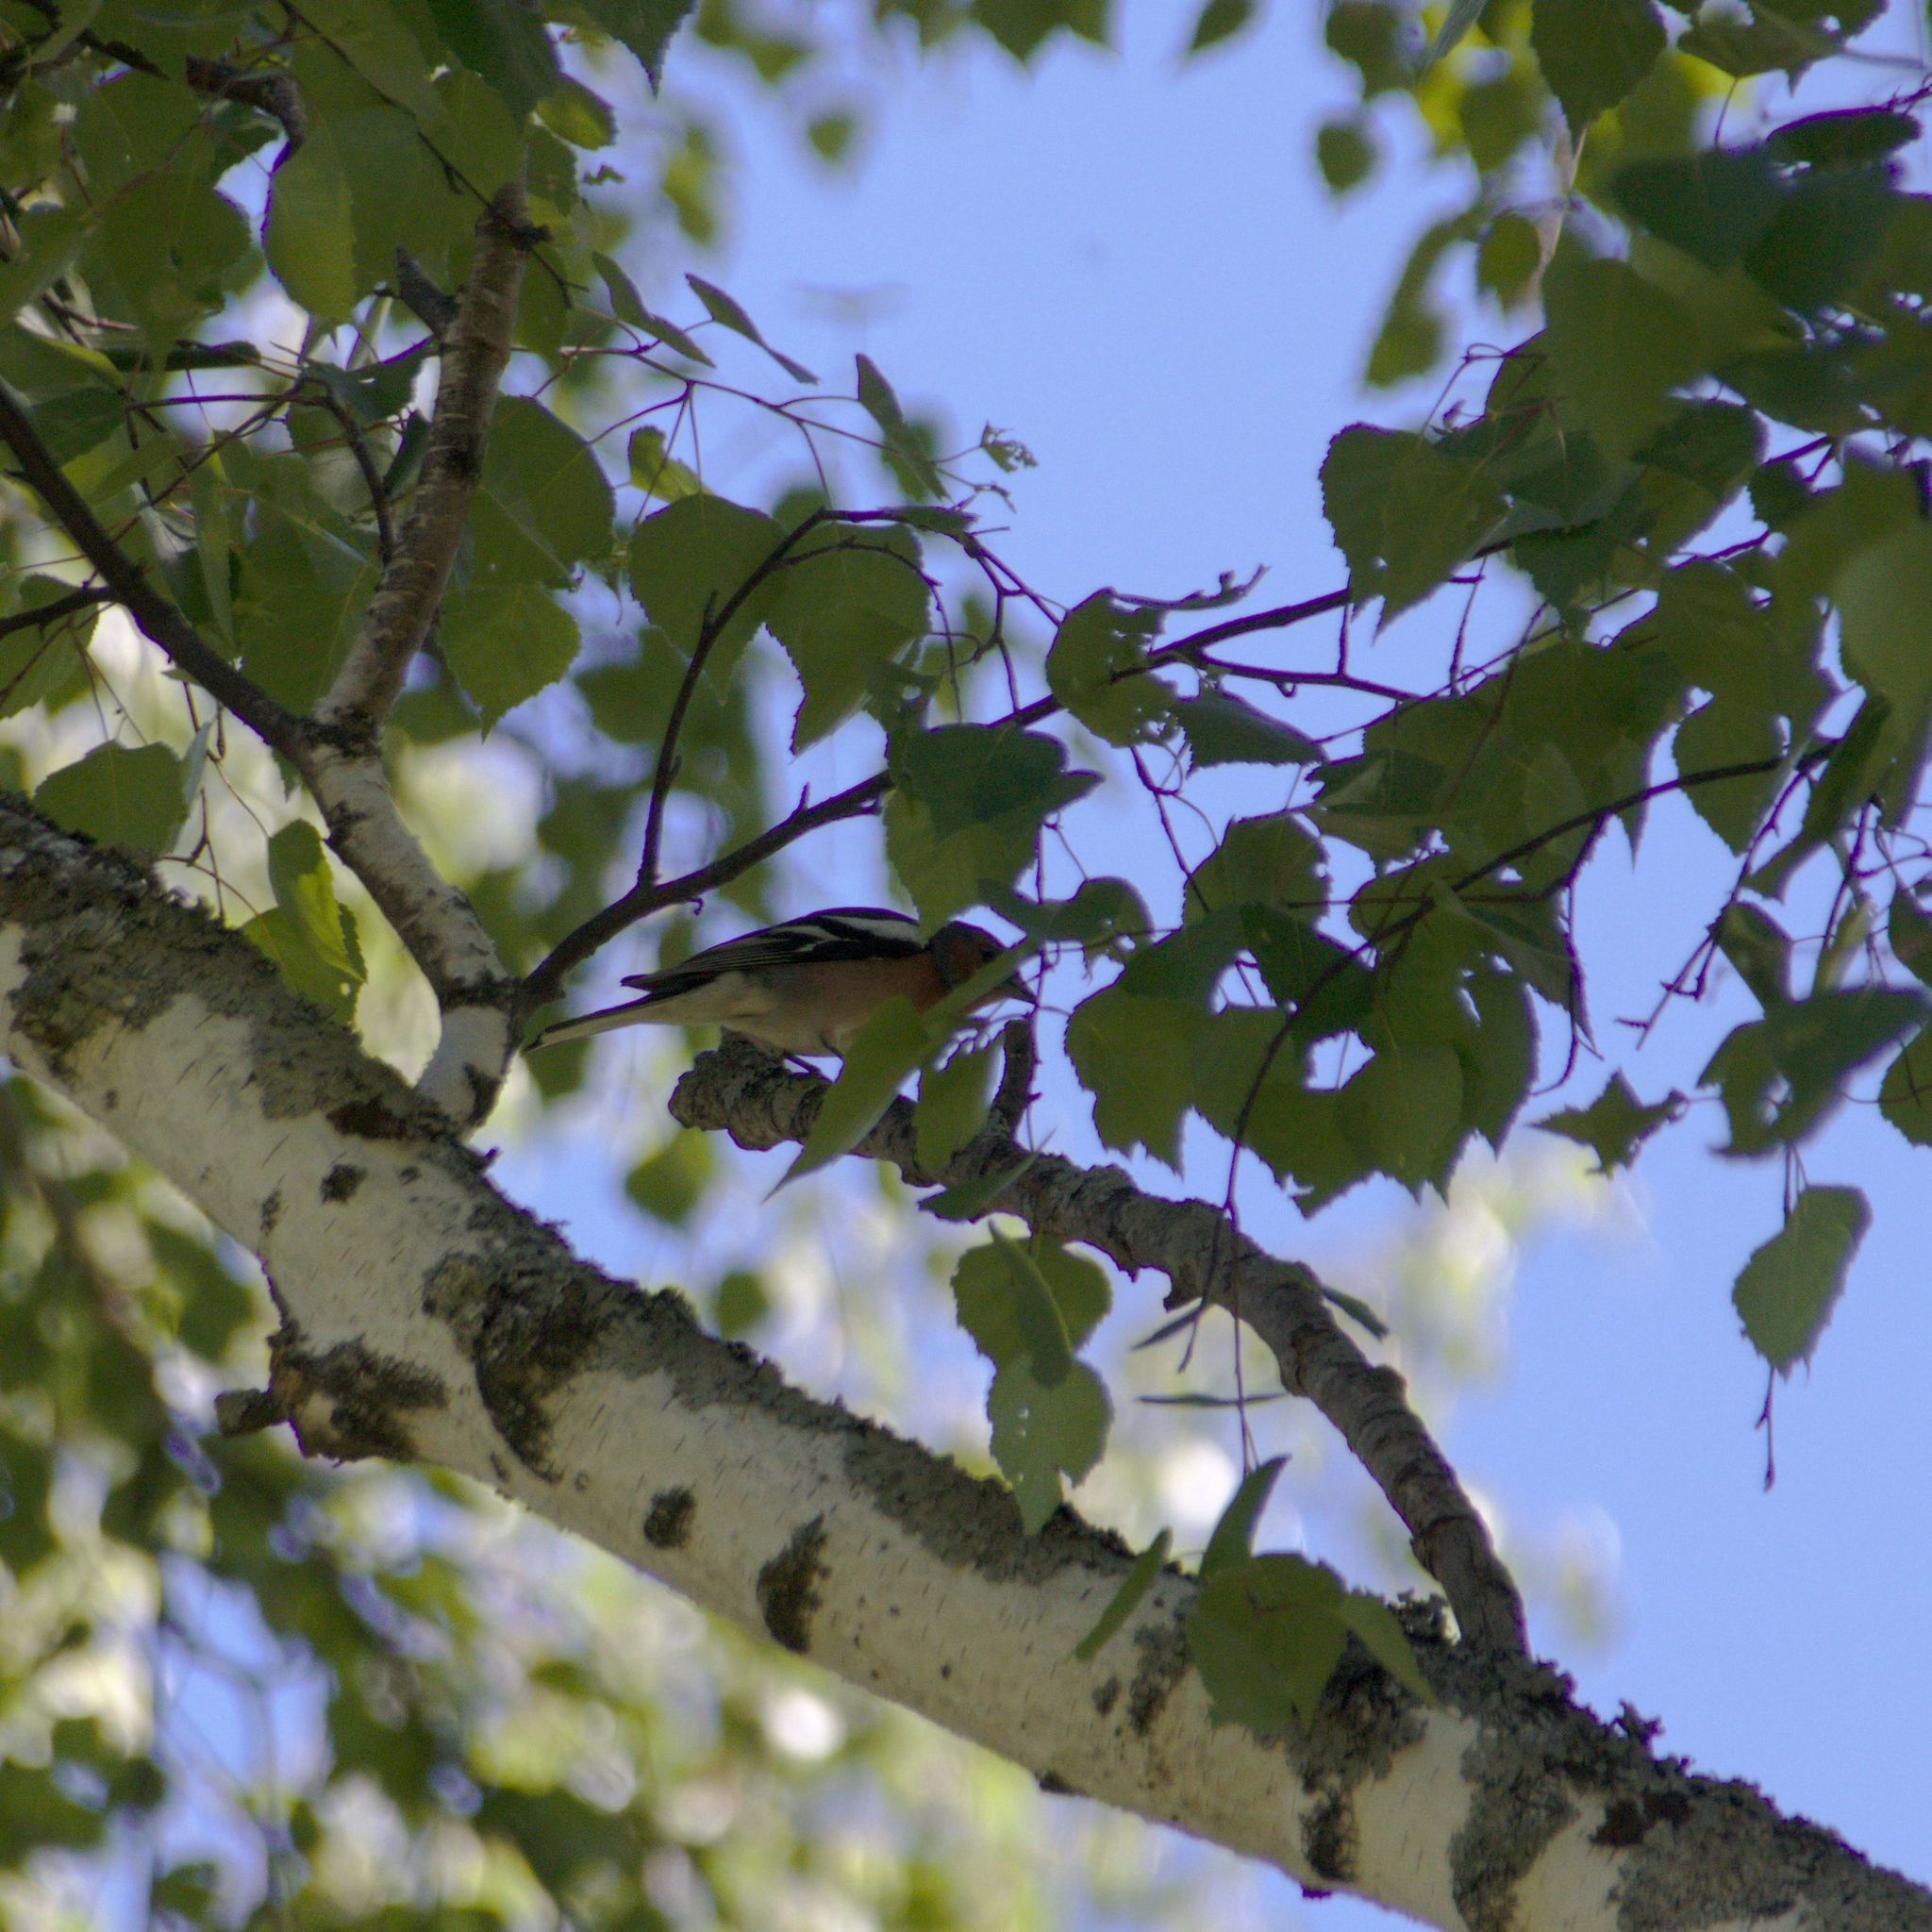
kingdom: Animalia
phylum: Chordata
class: Aves
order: Passeriformes
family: Fringillidae
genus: Fringilla
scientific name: Fringilla coelebs
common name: Common chaffinch
